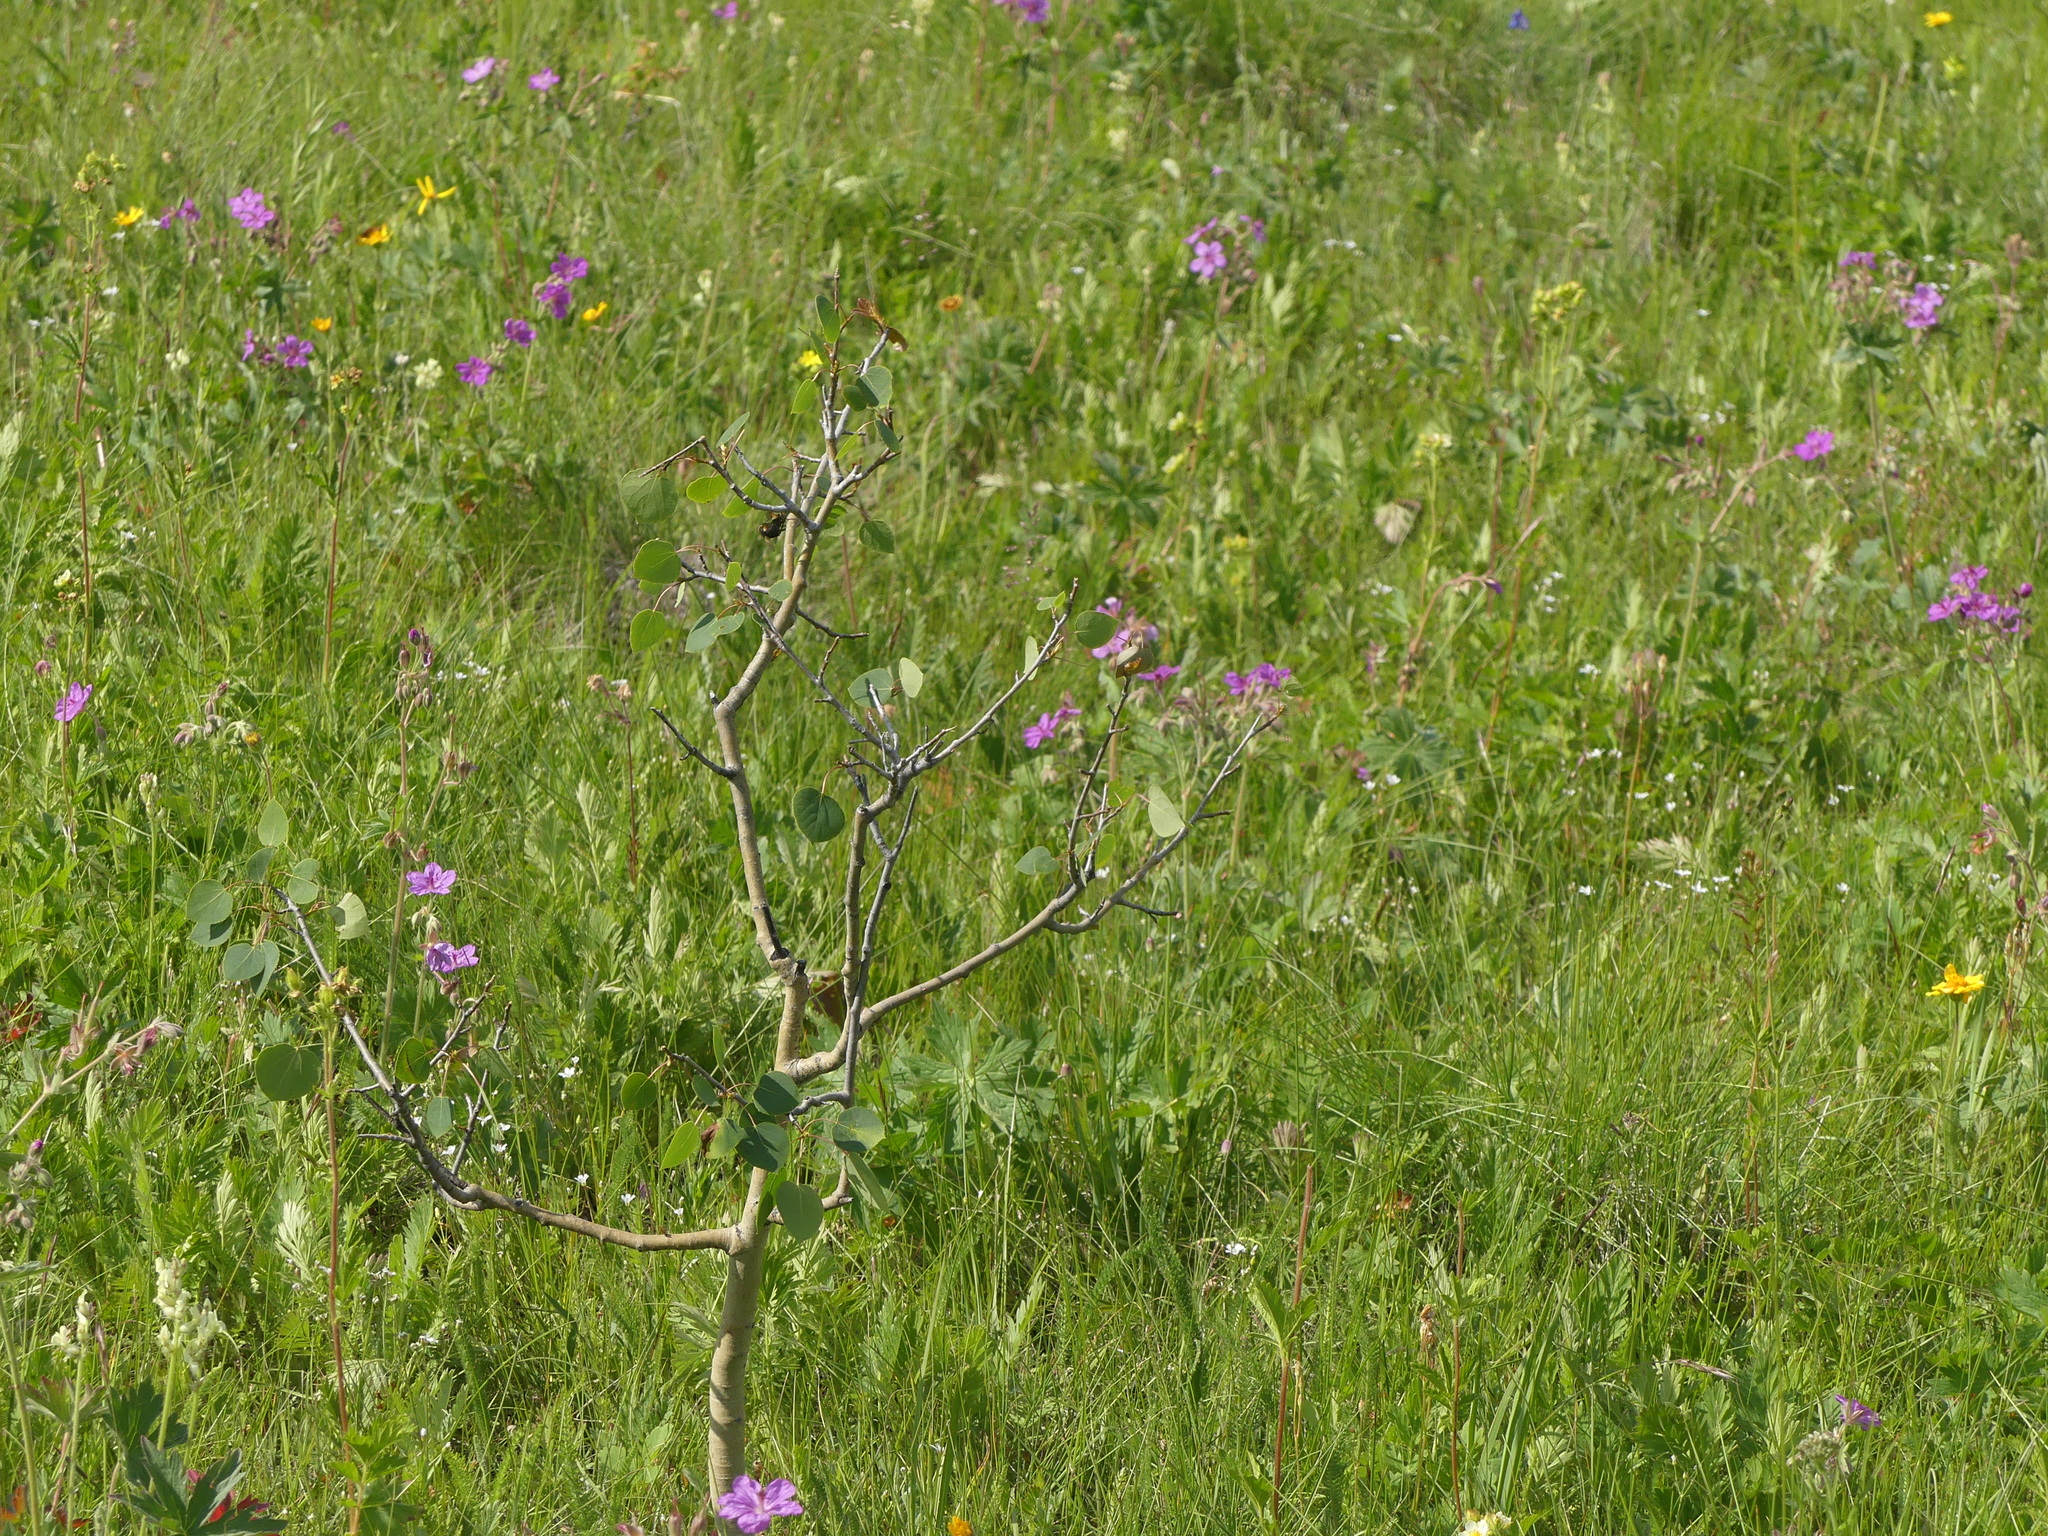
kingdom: Plantae
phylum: Tracheophyta
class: Magnoliopsida
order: Malpighiales
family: Salicaceae
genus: Populus
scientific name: Populus tremuloides
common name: Quaking aspen
